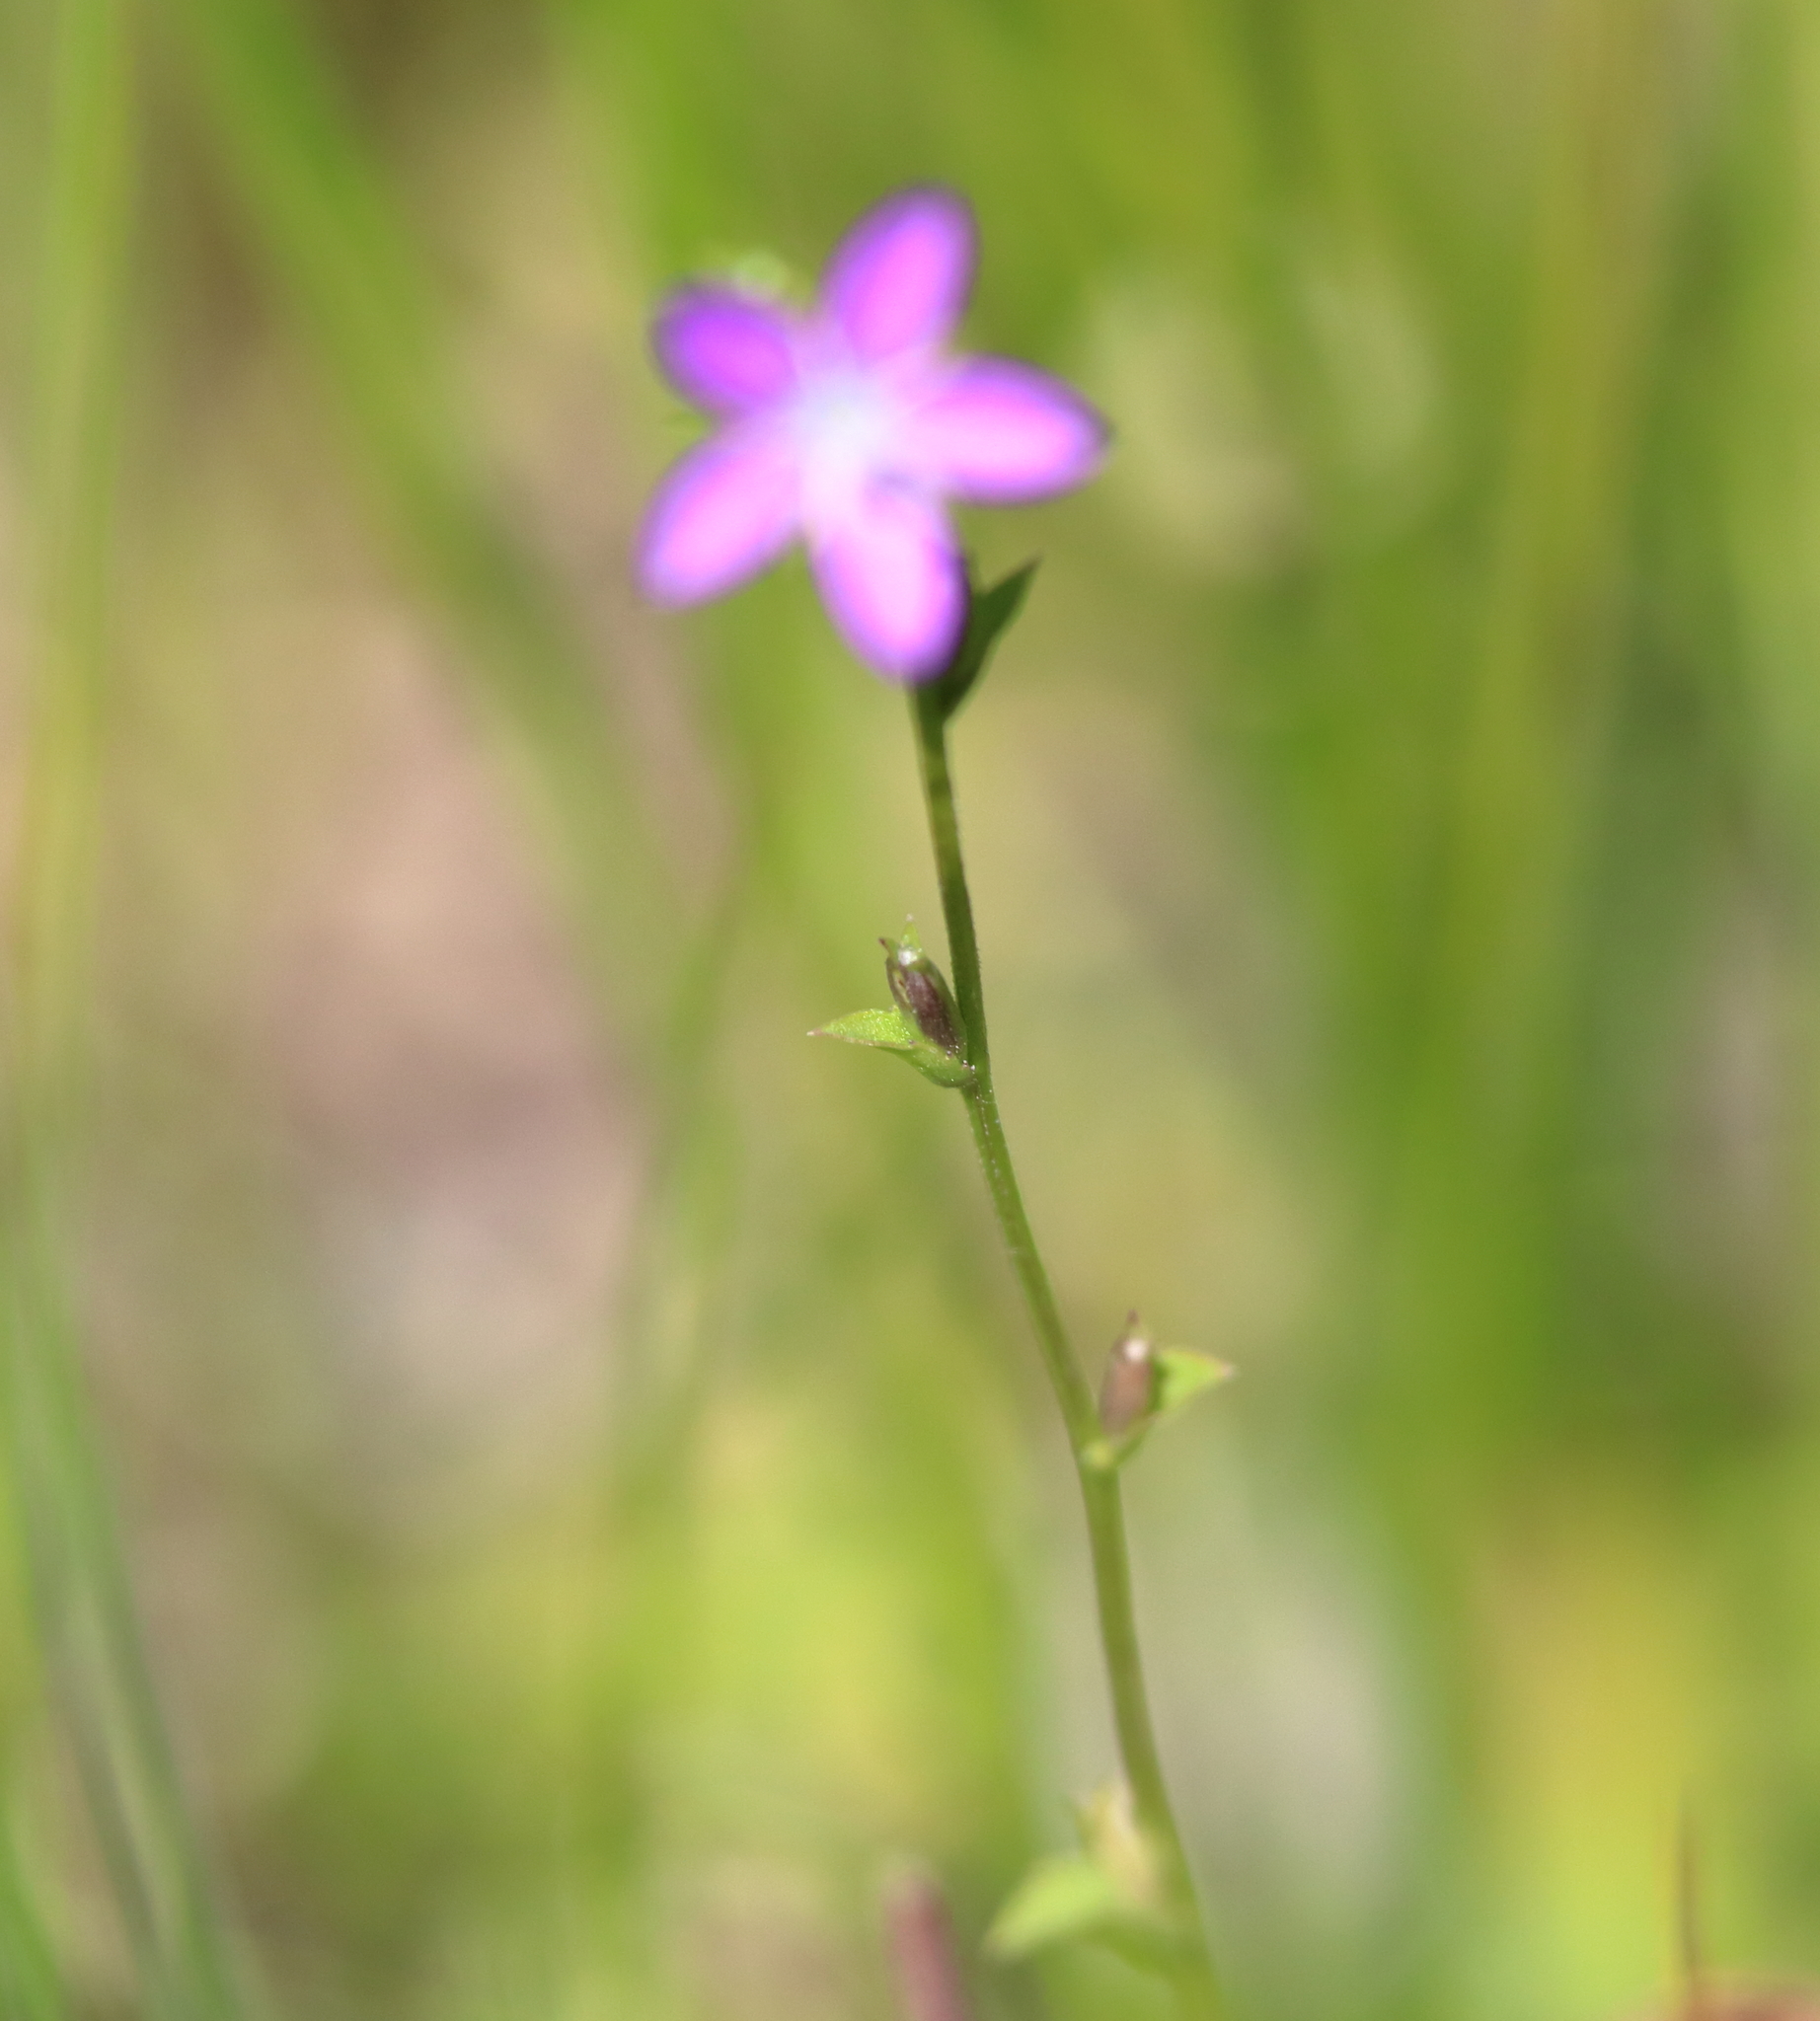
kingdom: Plantae
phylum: Tracheophyta
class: Magnoliopsida
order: Asterales
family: Campanulaceae
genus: Triodanis
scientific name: Triodanis biflora
